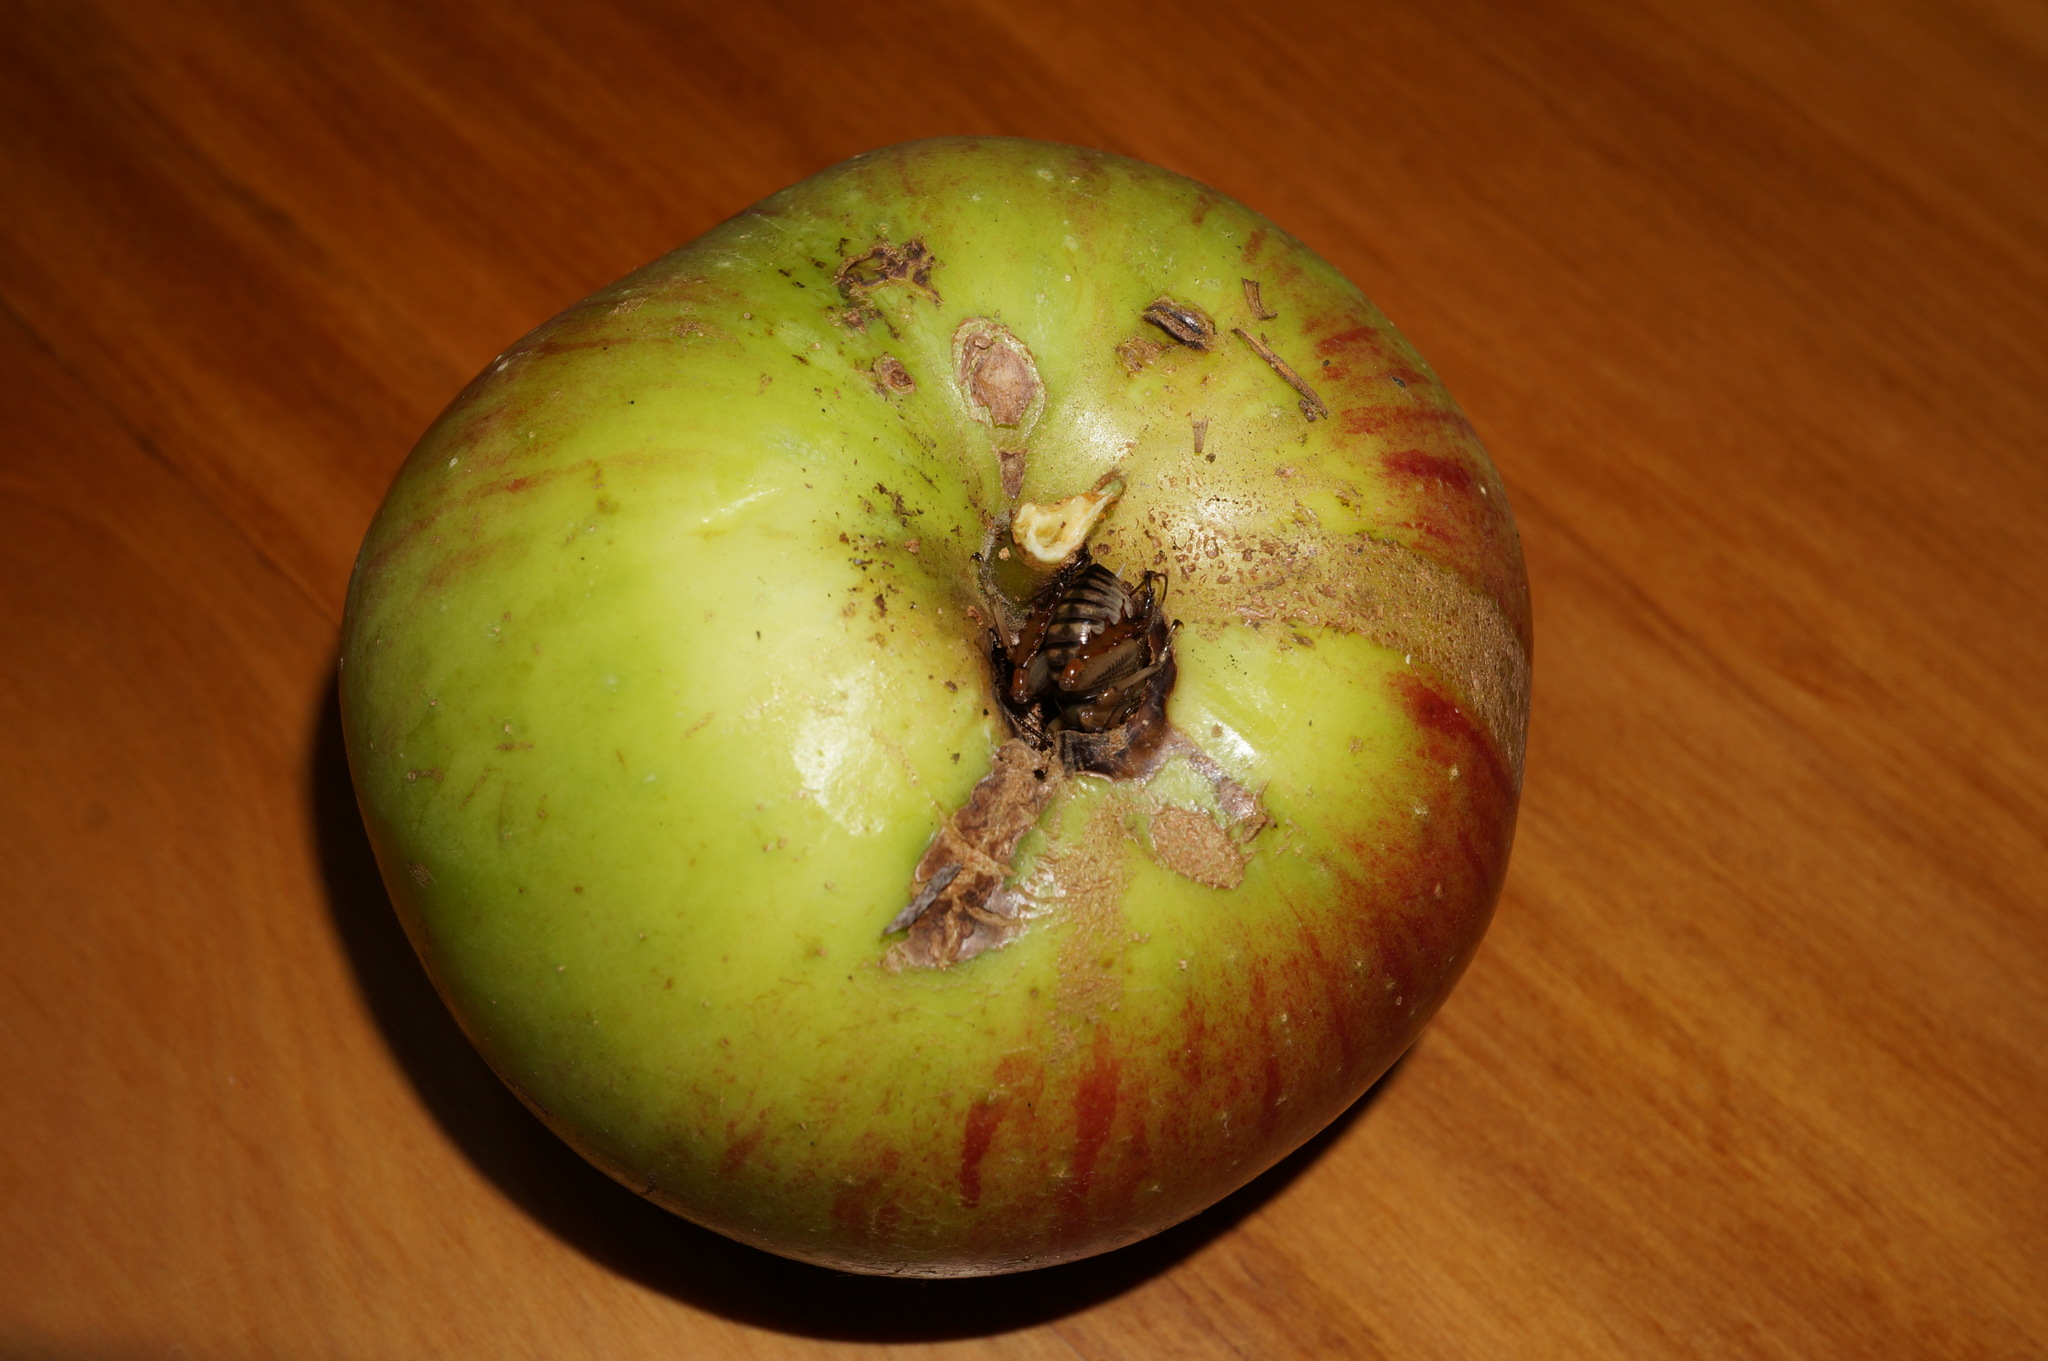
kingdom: Animalia
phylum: Arthropoda
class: Insecta
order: Orthoptera
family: Anostostomatidae
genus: Hemideina
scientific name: Hemideina crassidens
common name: Wellington tree weta
